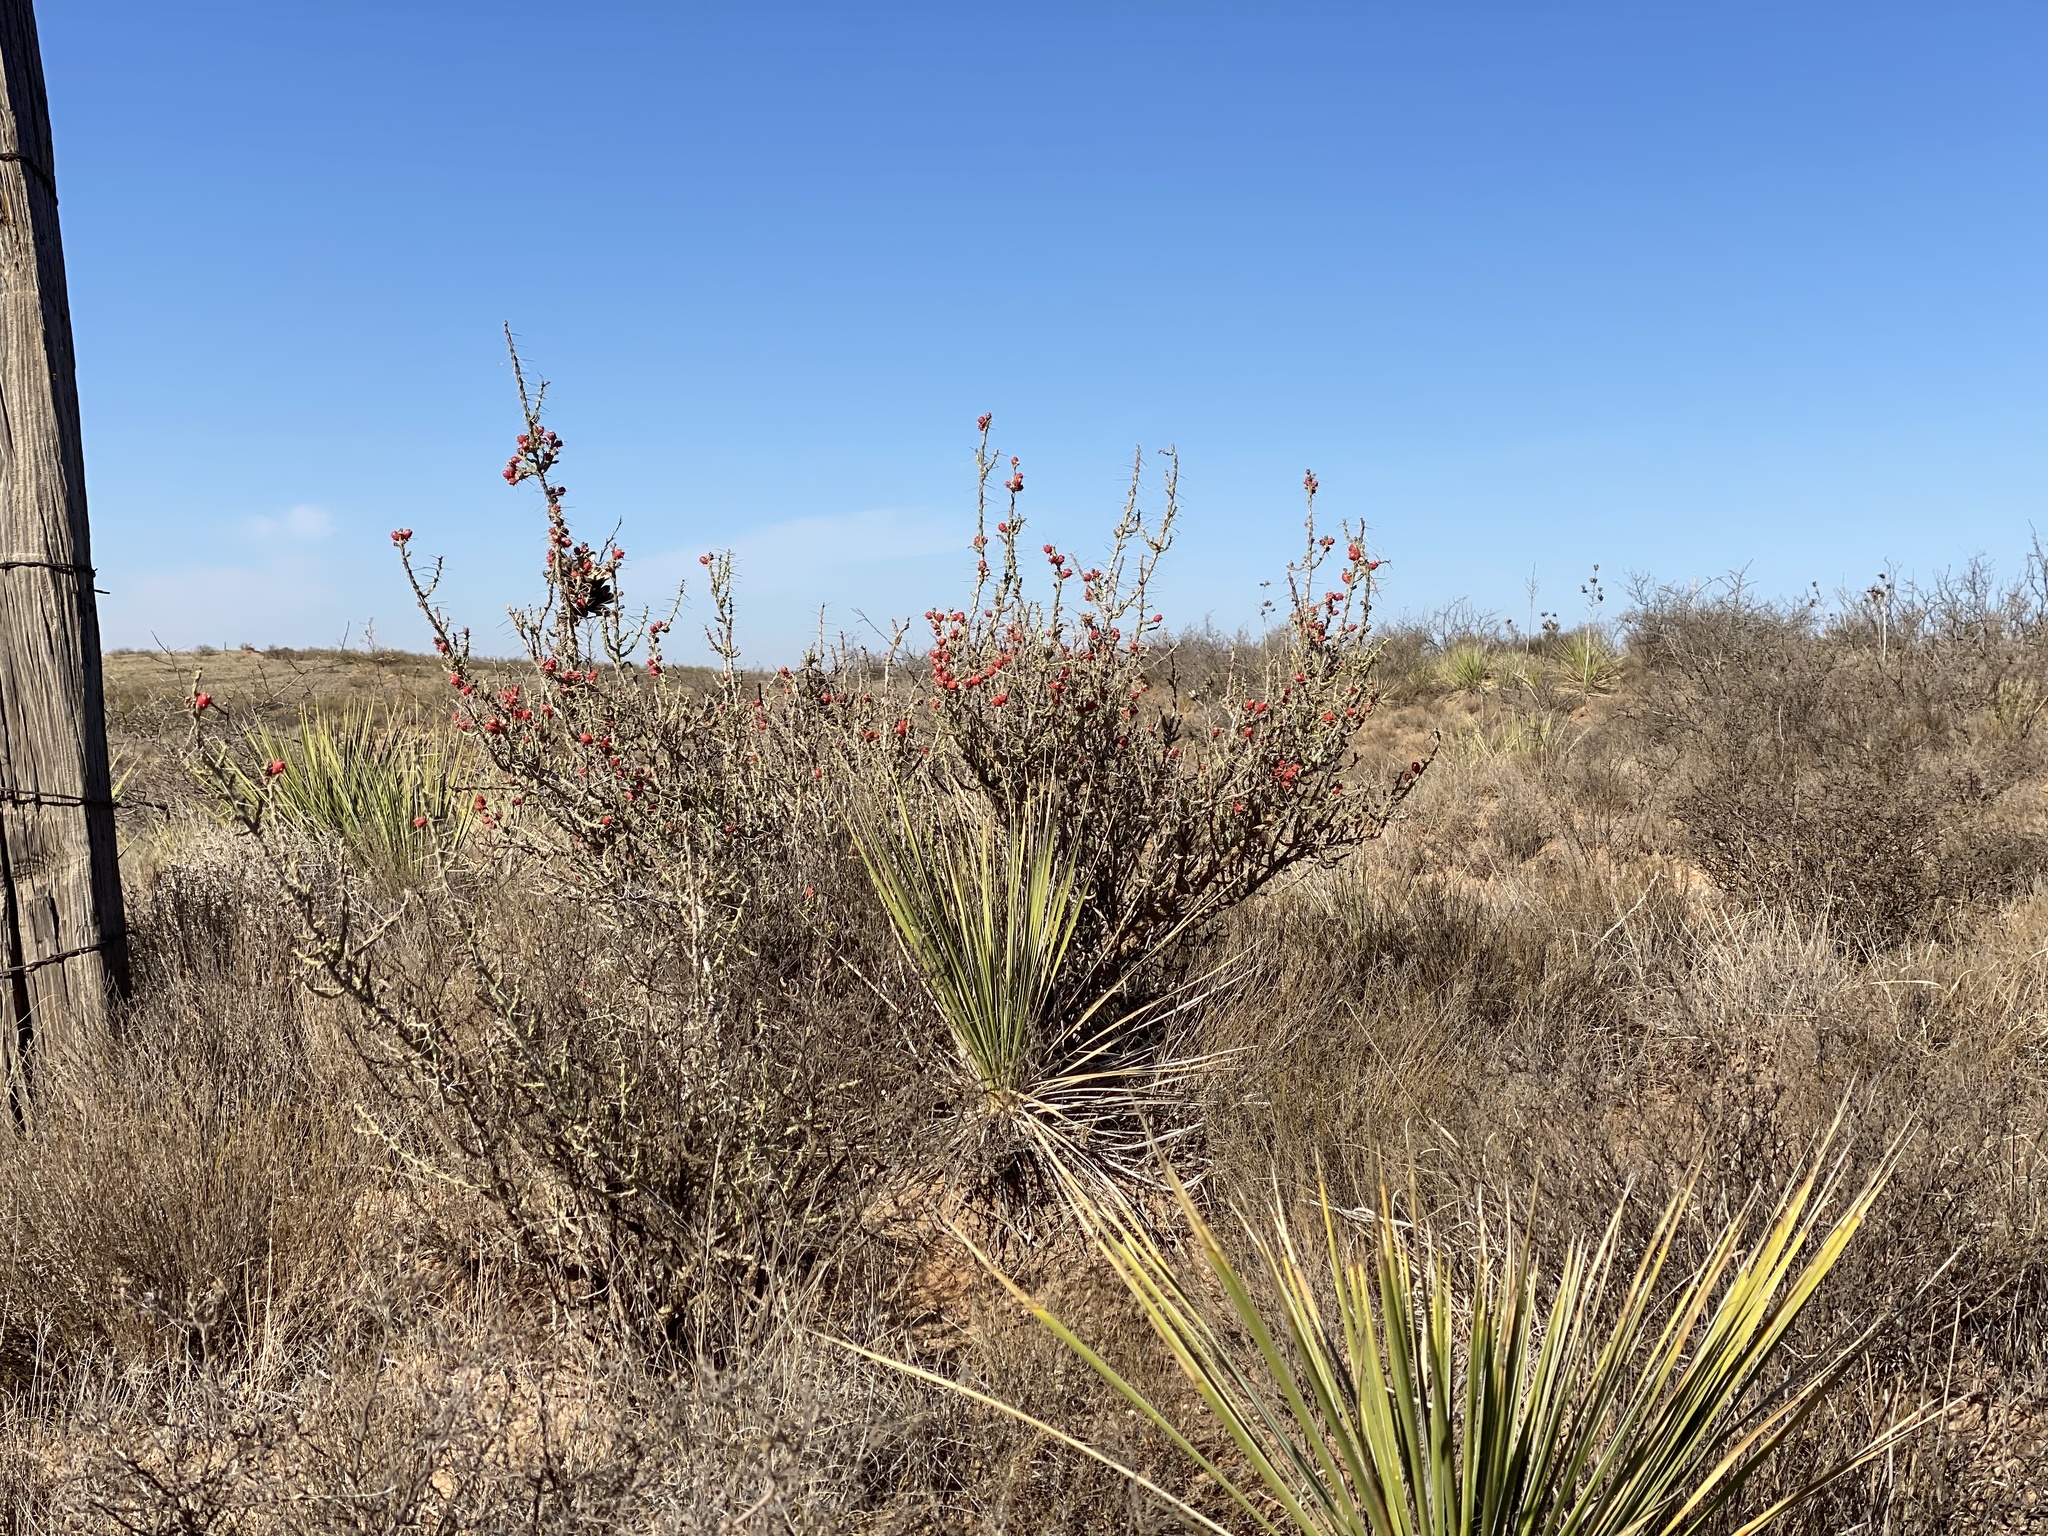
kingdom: Plantae
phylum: Tracheophyta
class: Magnoliopsida
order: Caryophyllales
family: Cactaceae
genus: Cylindropuntia
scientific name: Cylindropuntia leptocaulis
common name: Christmas cactus
